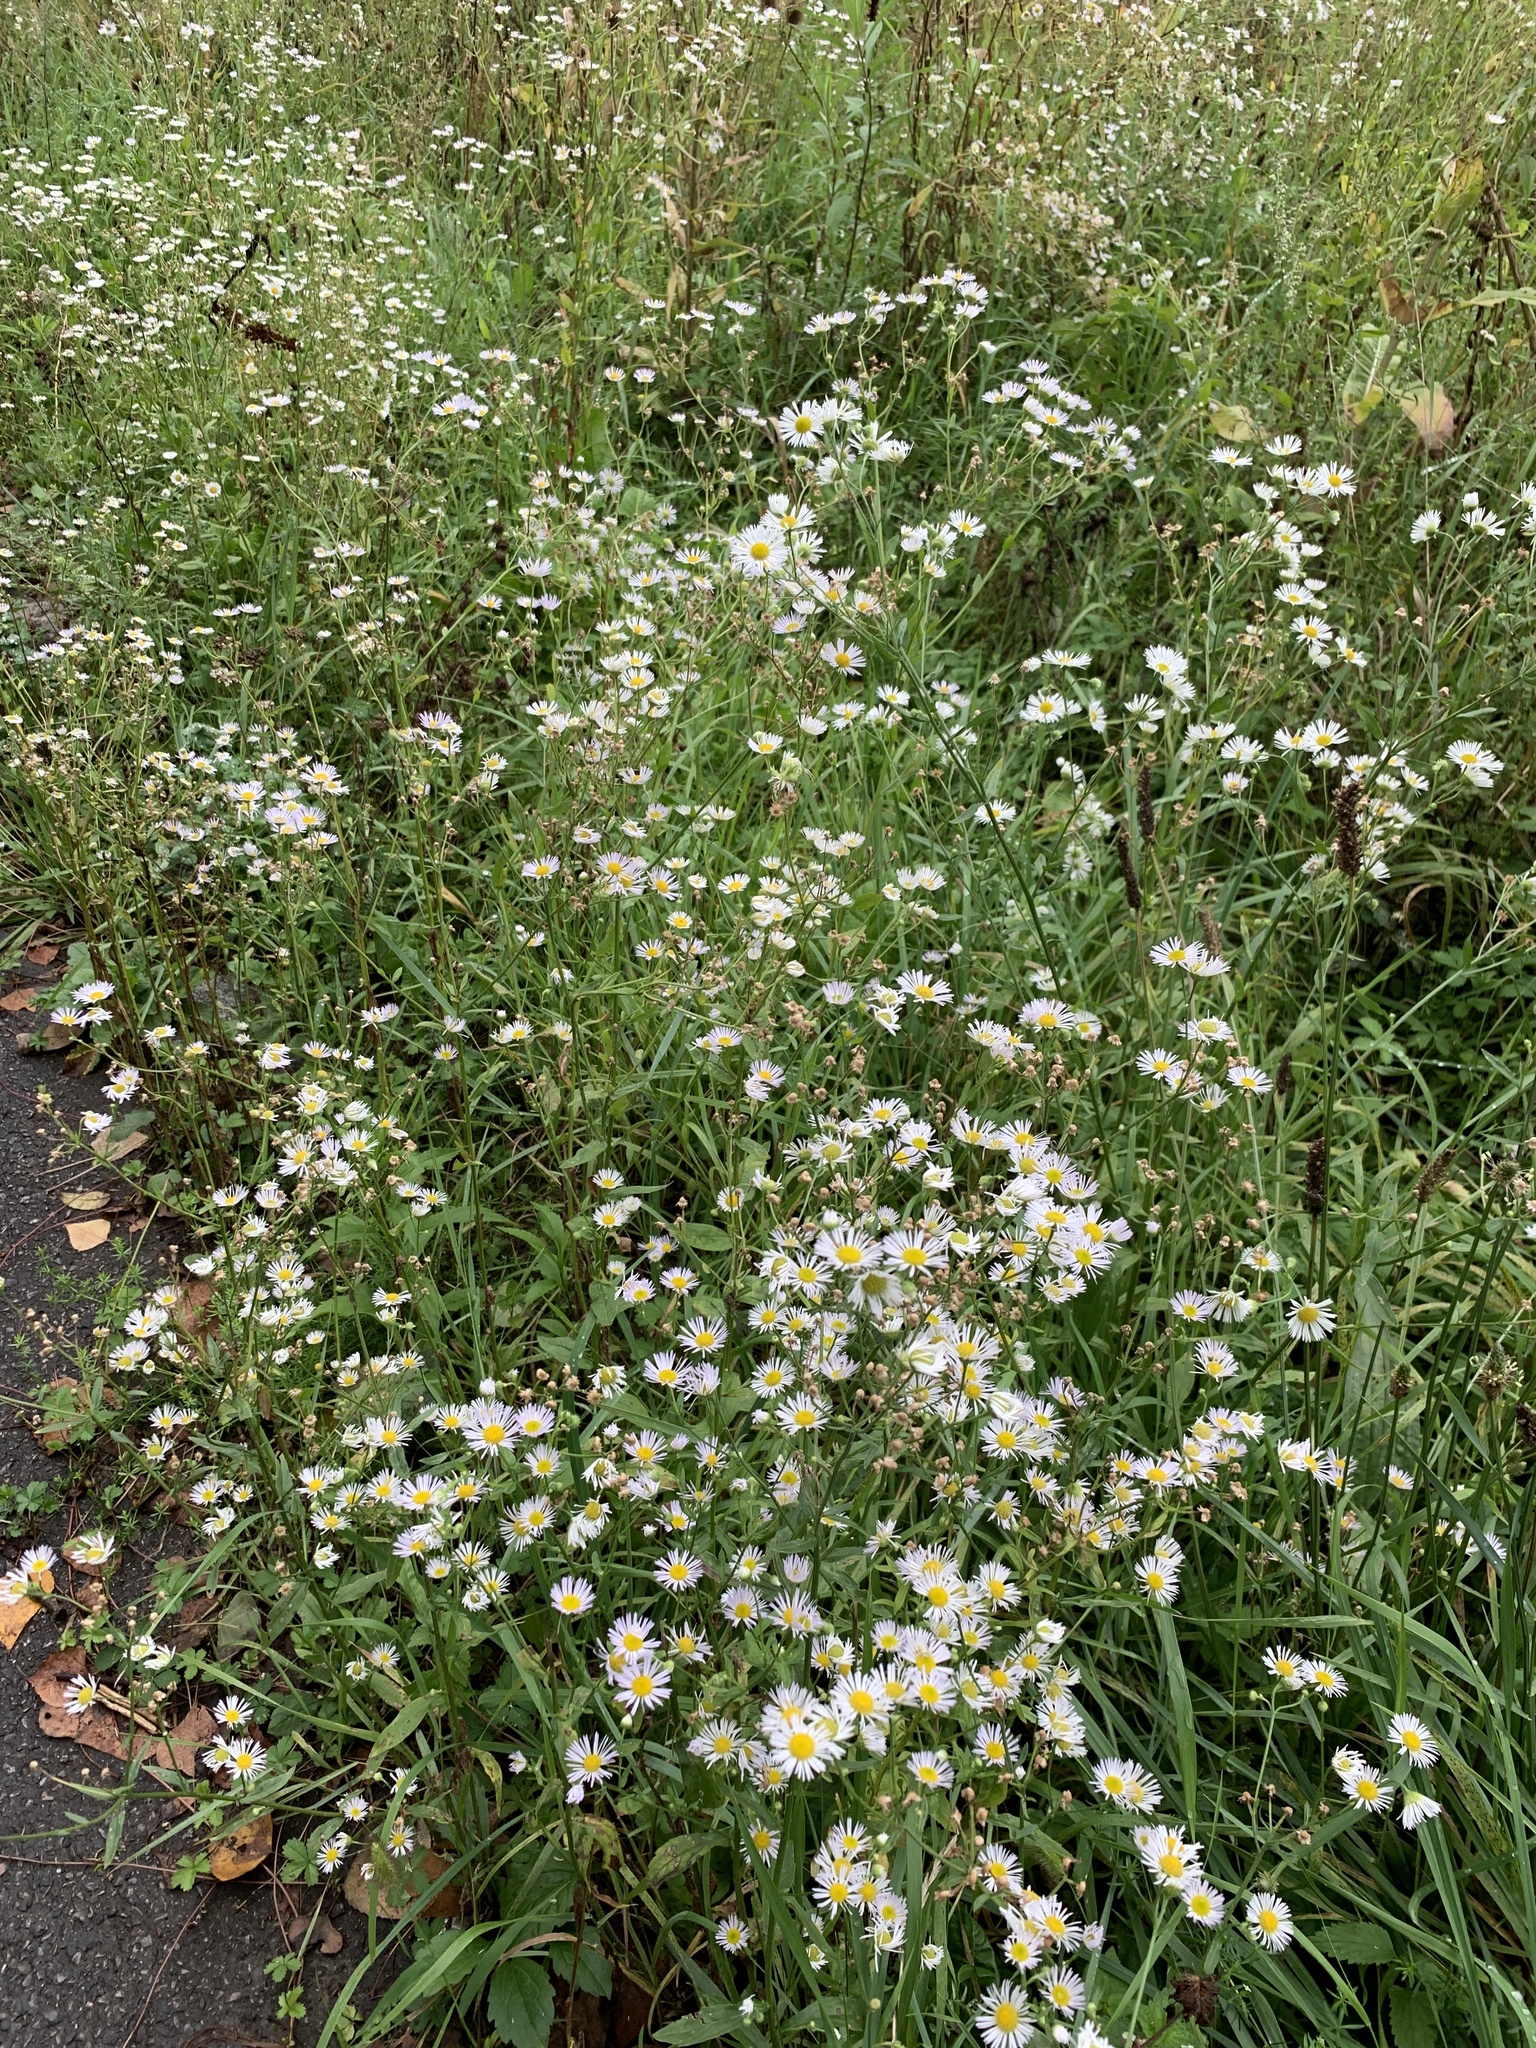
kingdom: Plantae
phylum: Tracheophyta
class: Magnoliopsida
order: Asterales
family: Asteraceae
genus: Erigeron
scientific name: Erigeron annuus
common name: Tall fleabane
